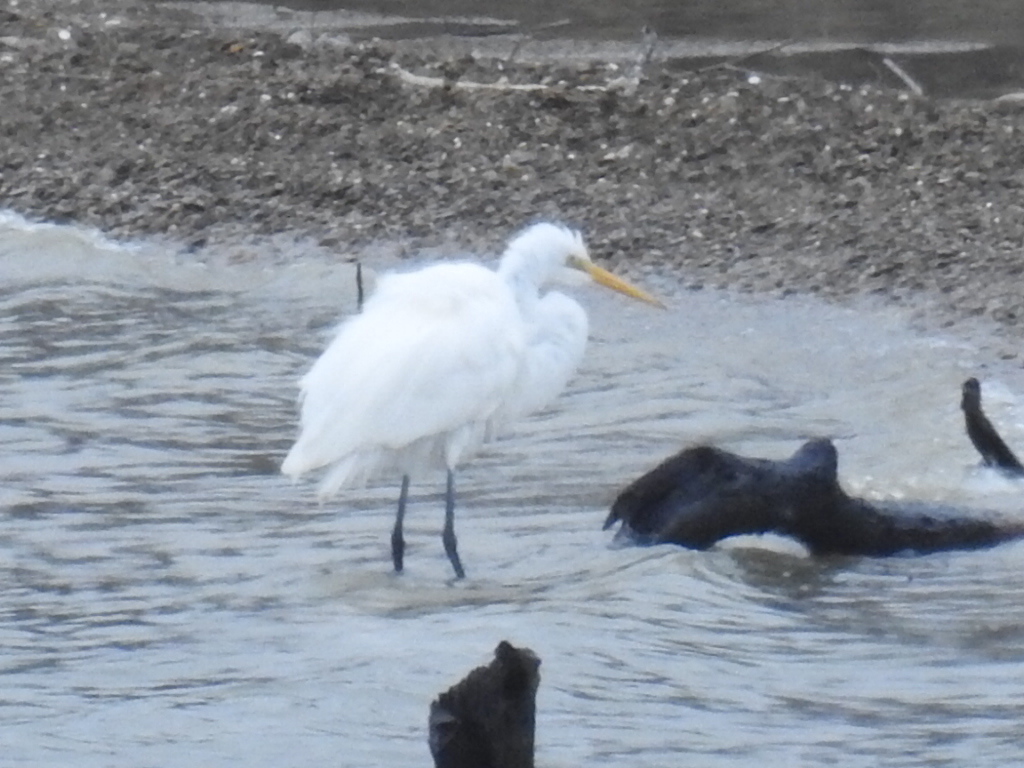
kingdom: Animalia
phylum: Chordata
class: Aves
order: Pelecaniformes
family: Ardeidae
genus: Ardea
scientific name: Ardea alba
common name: Great egret
